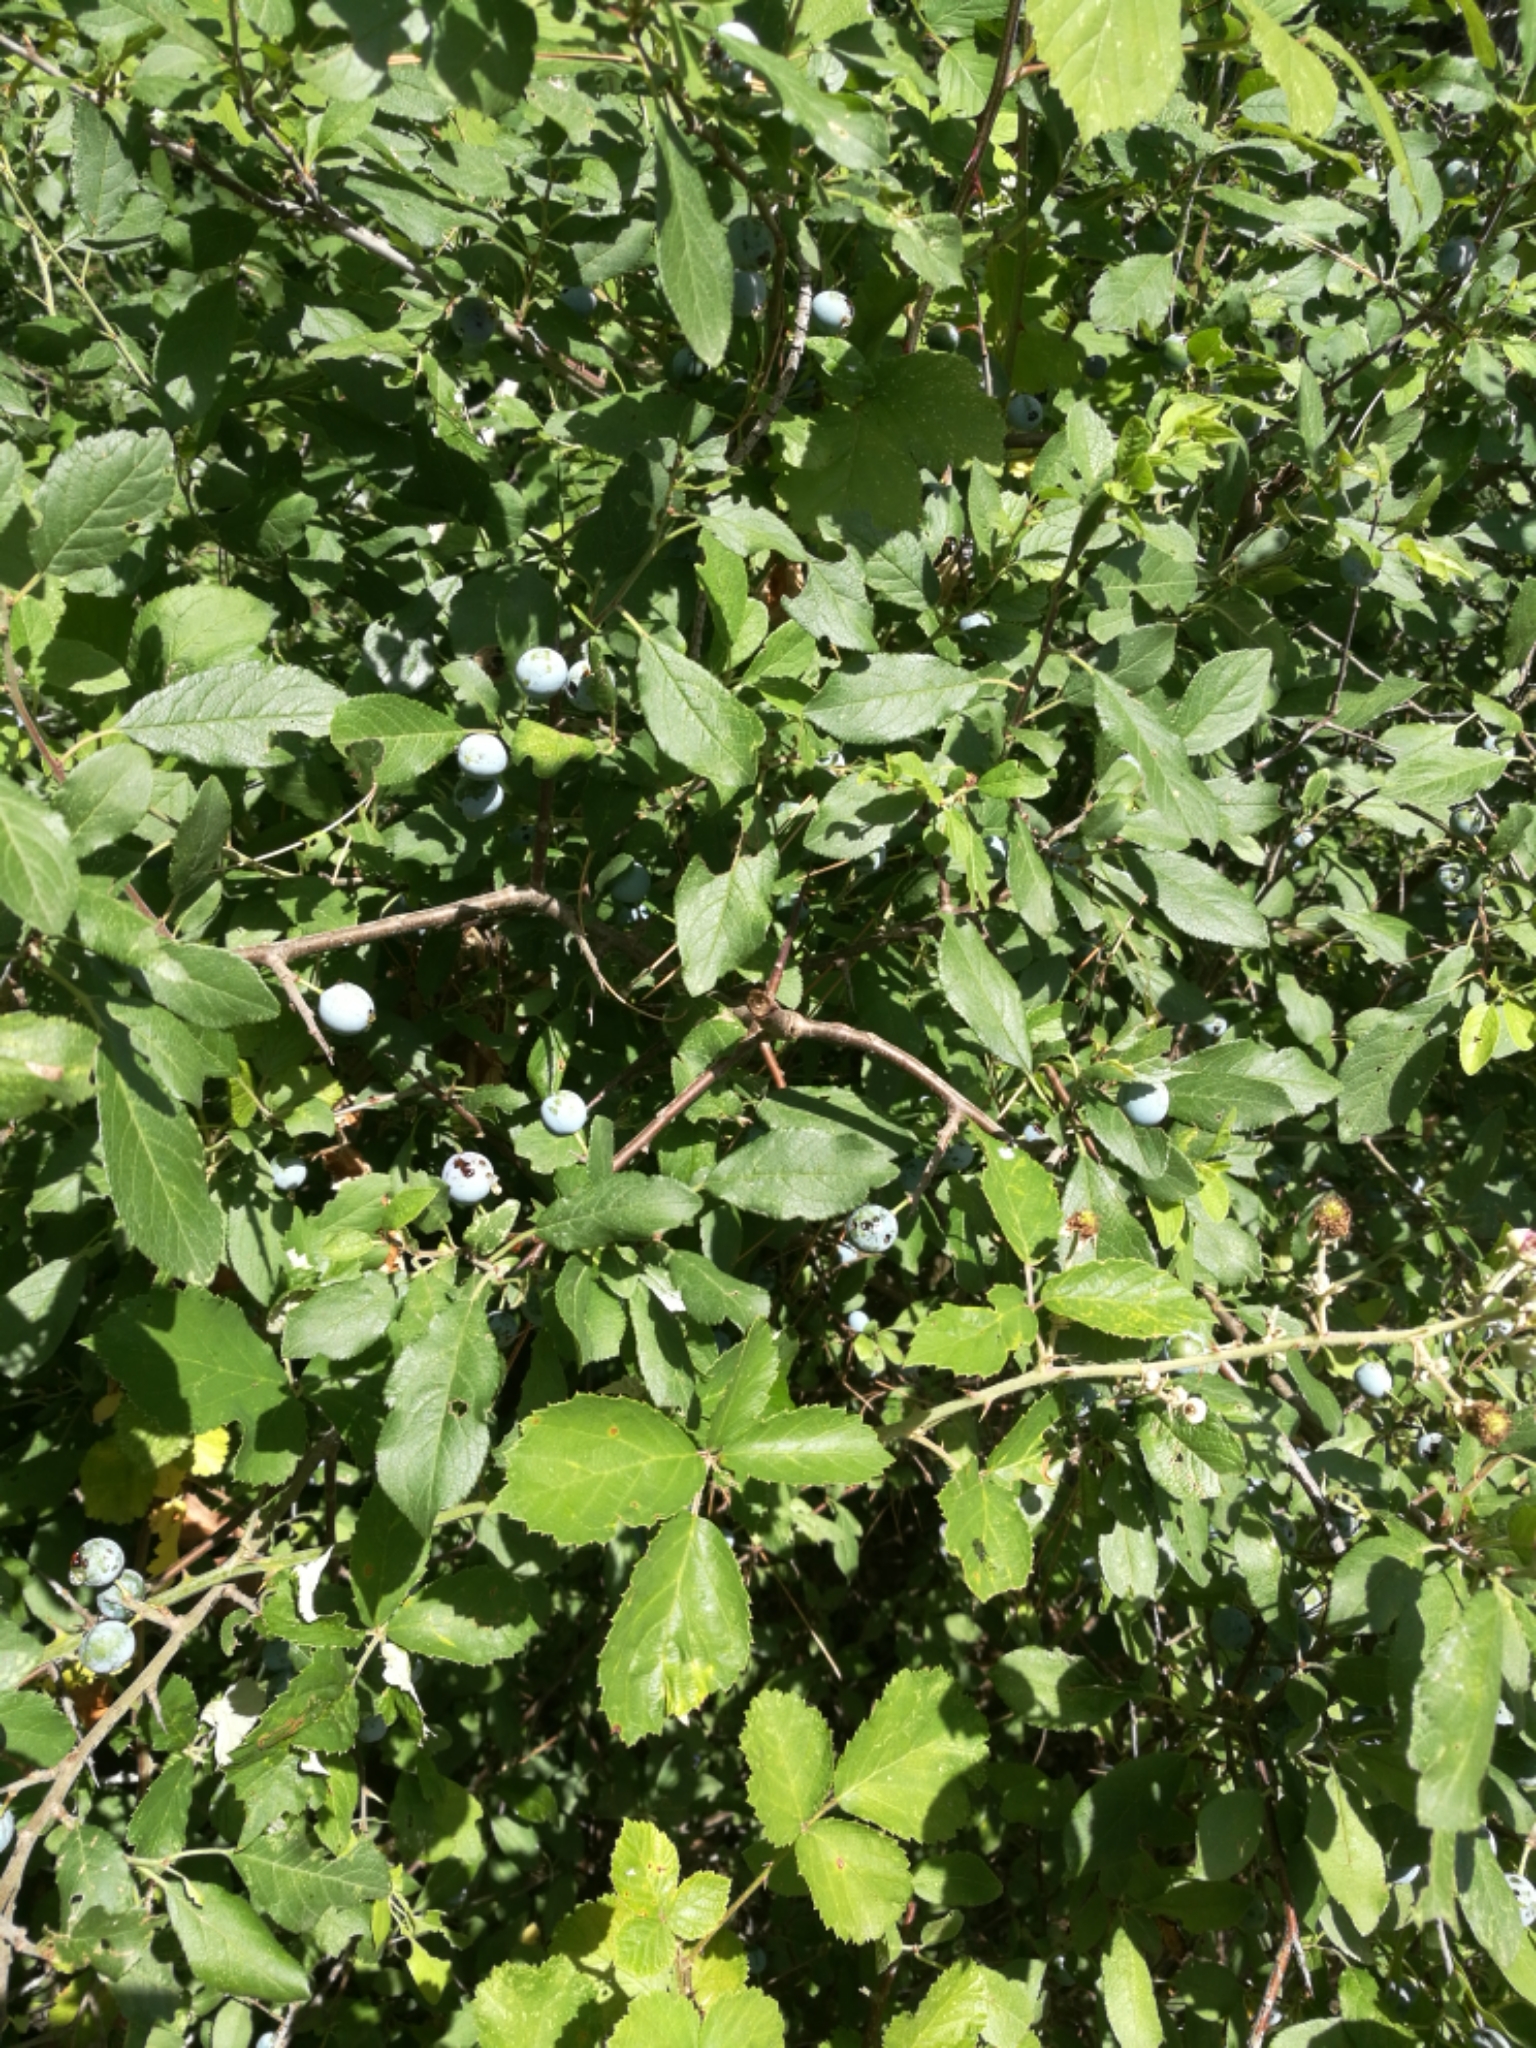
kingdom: Plantae
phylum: Tracheophyta
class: Magnoliopsida
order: Rosales
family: Rosaceae
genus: Prunus
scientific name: Prunus spinosa
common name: Blackthorn
